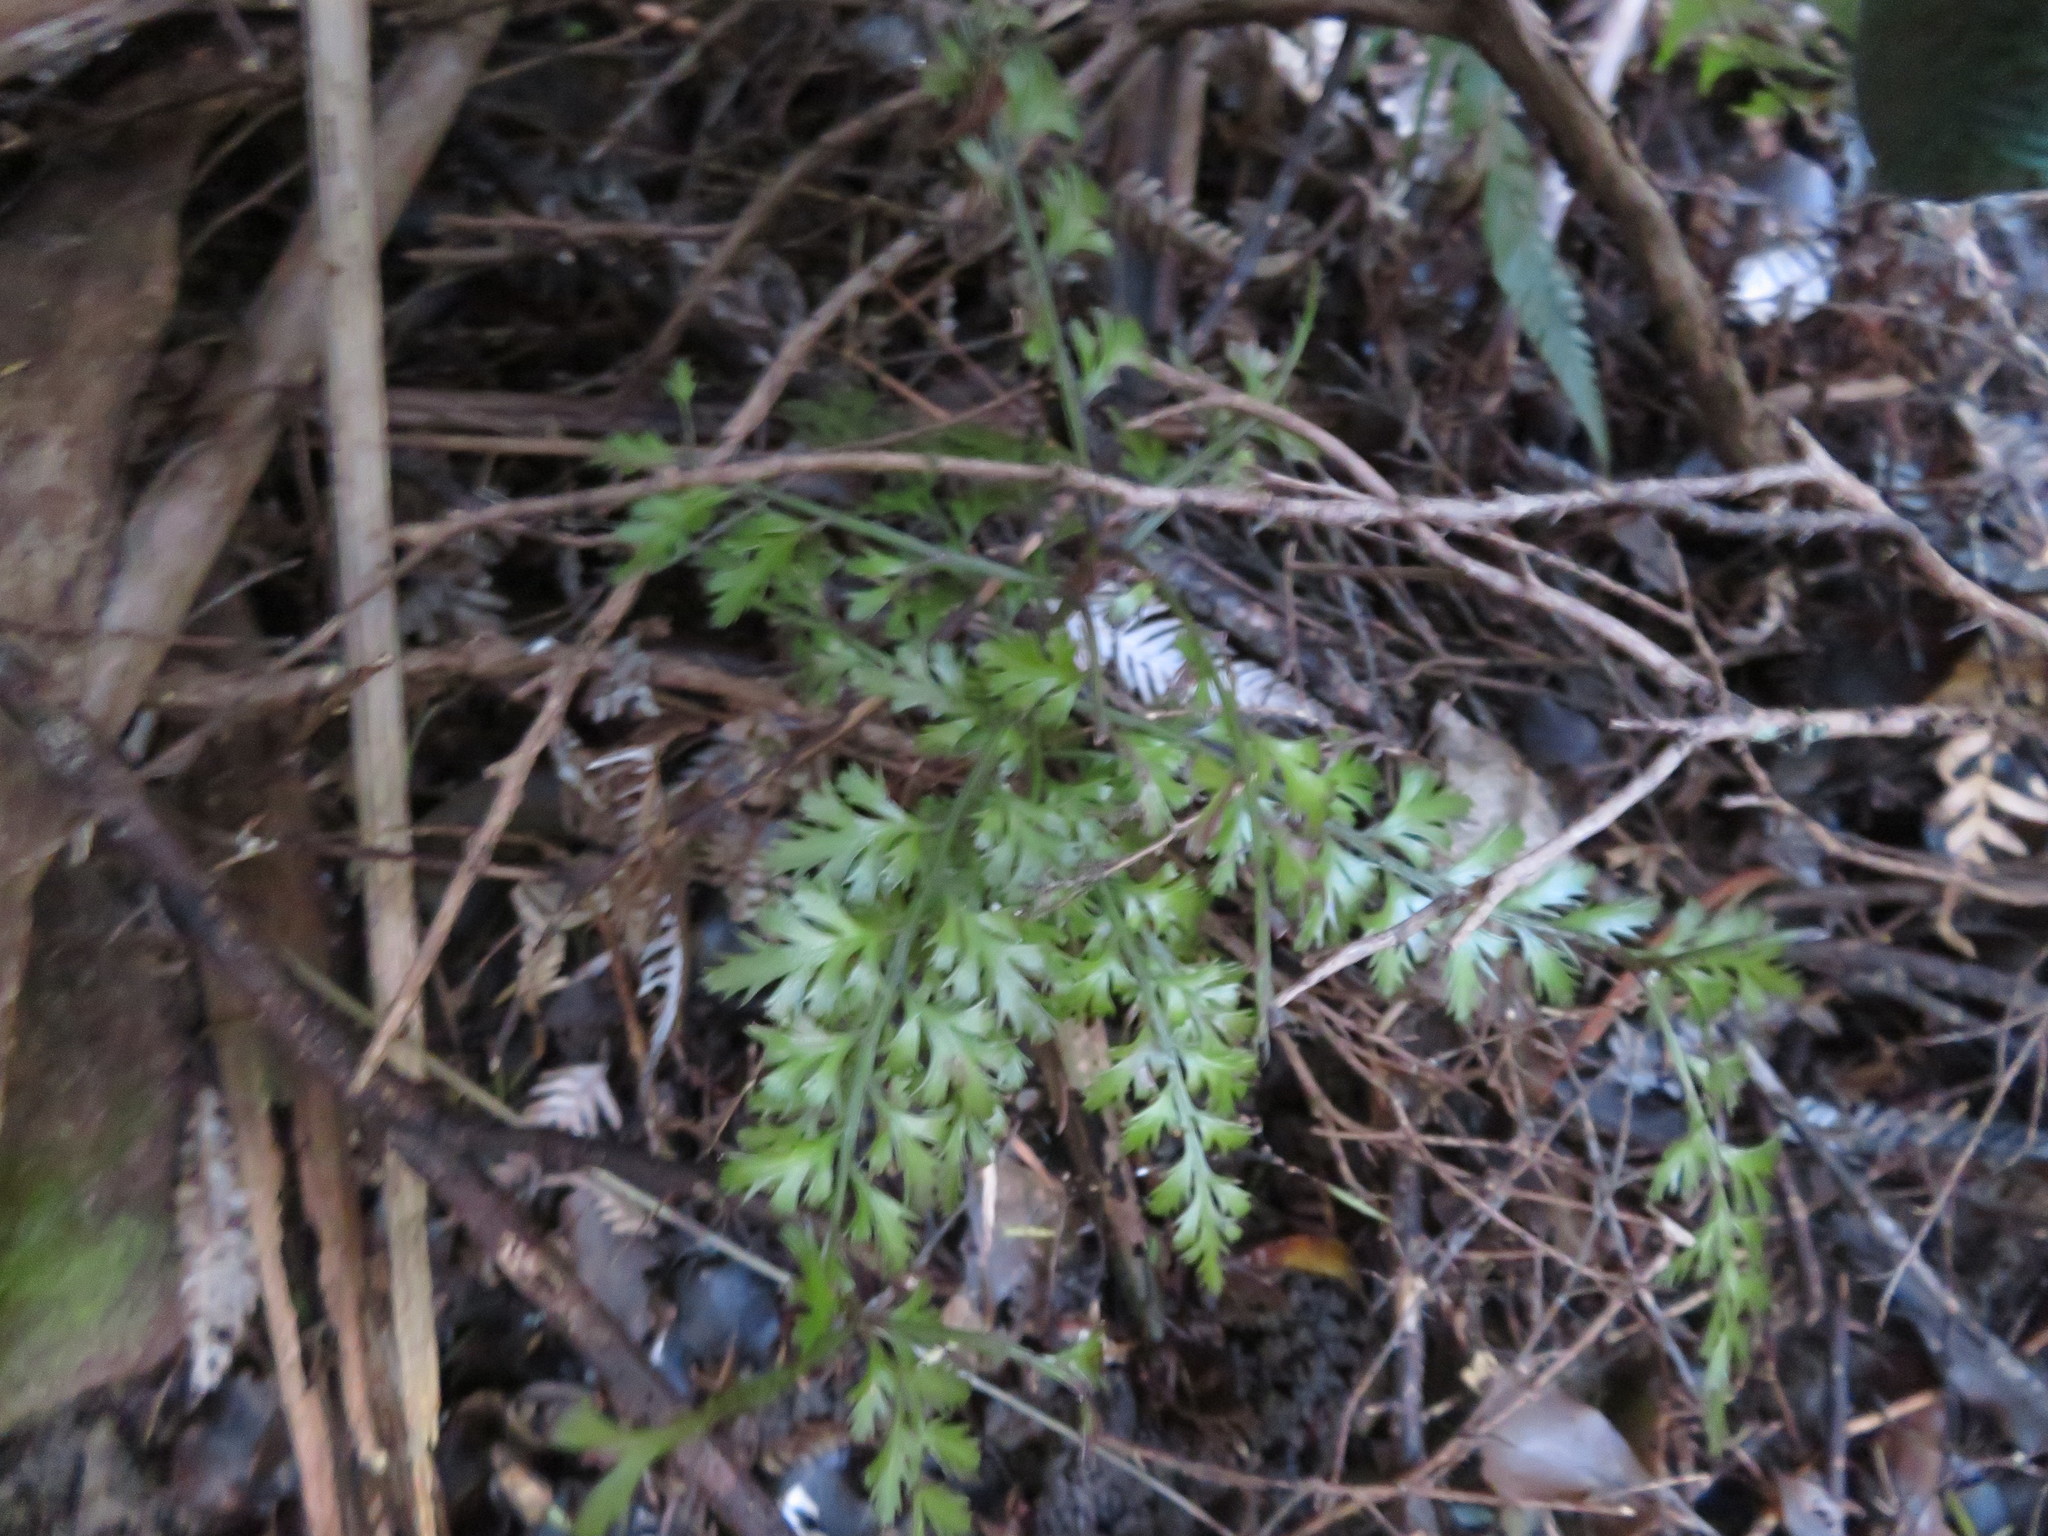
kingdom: Plantae
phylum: Tracheophyta
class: Pinopsida
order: Pinales
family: Phyllocladaceae
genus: Phyllocladus
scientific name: Phyllocladus trichomanoides
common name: Celery pine
